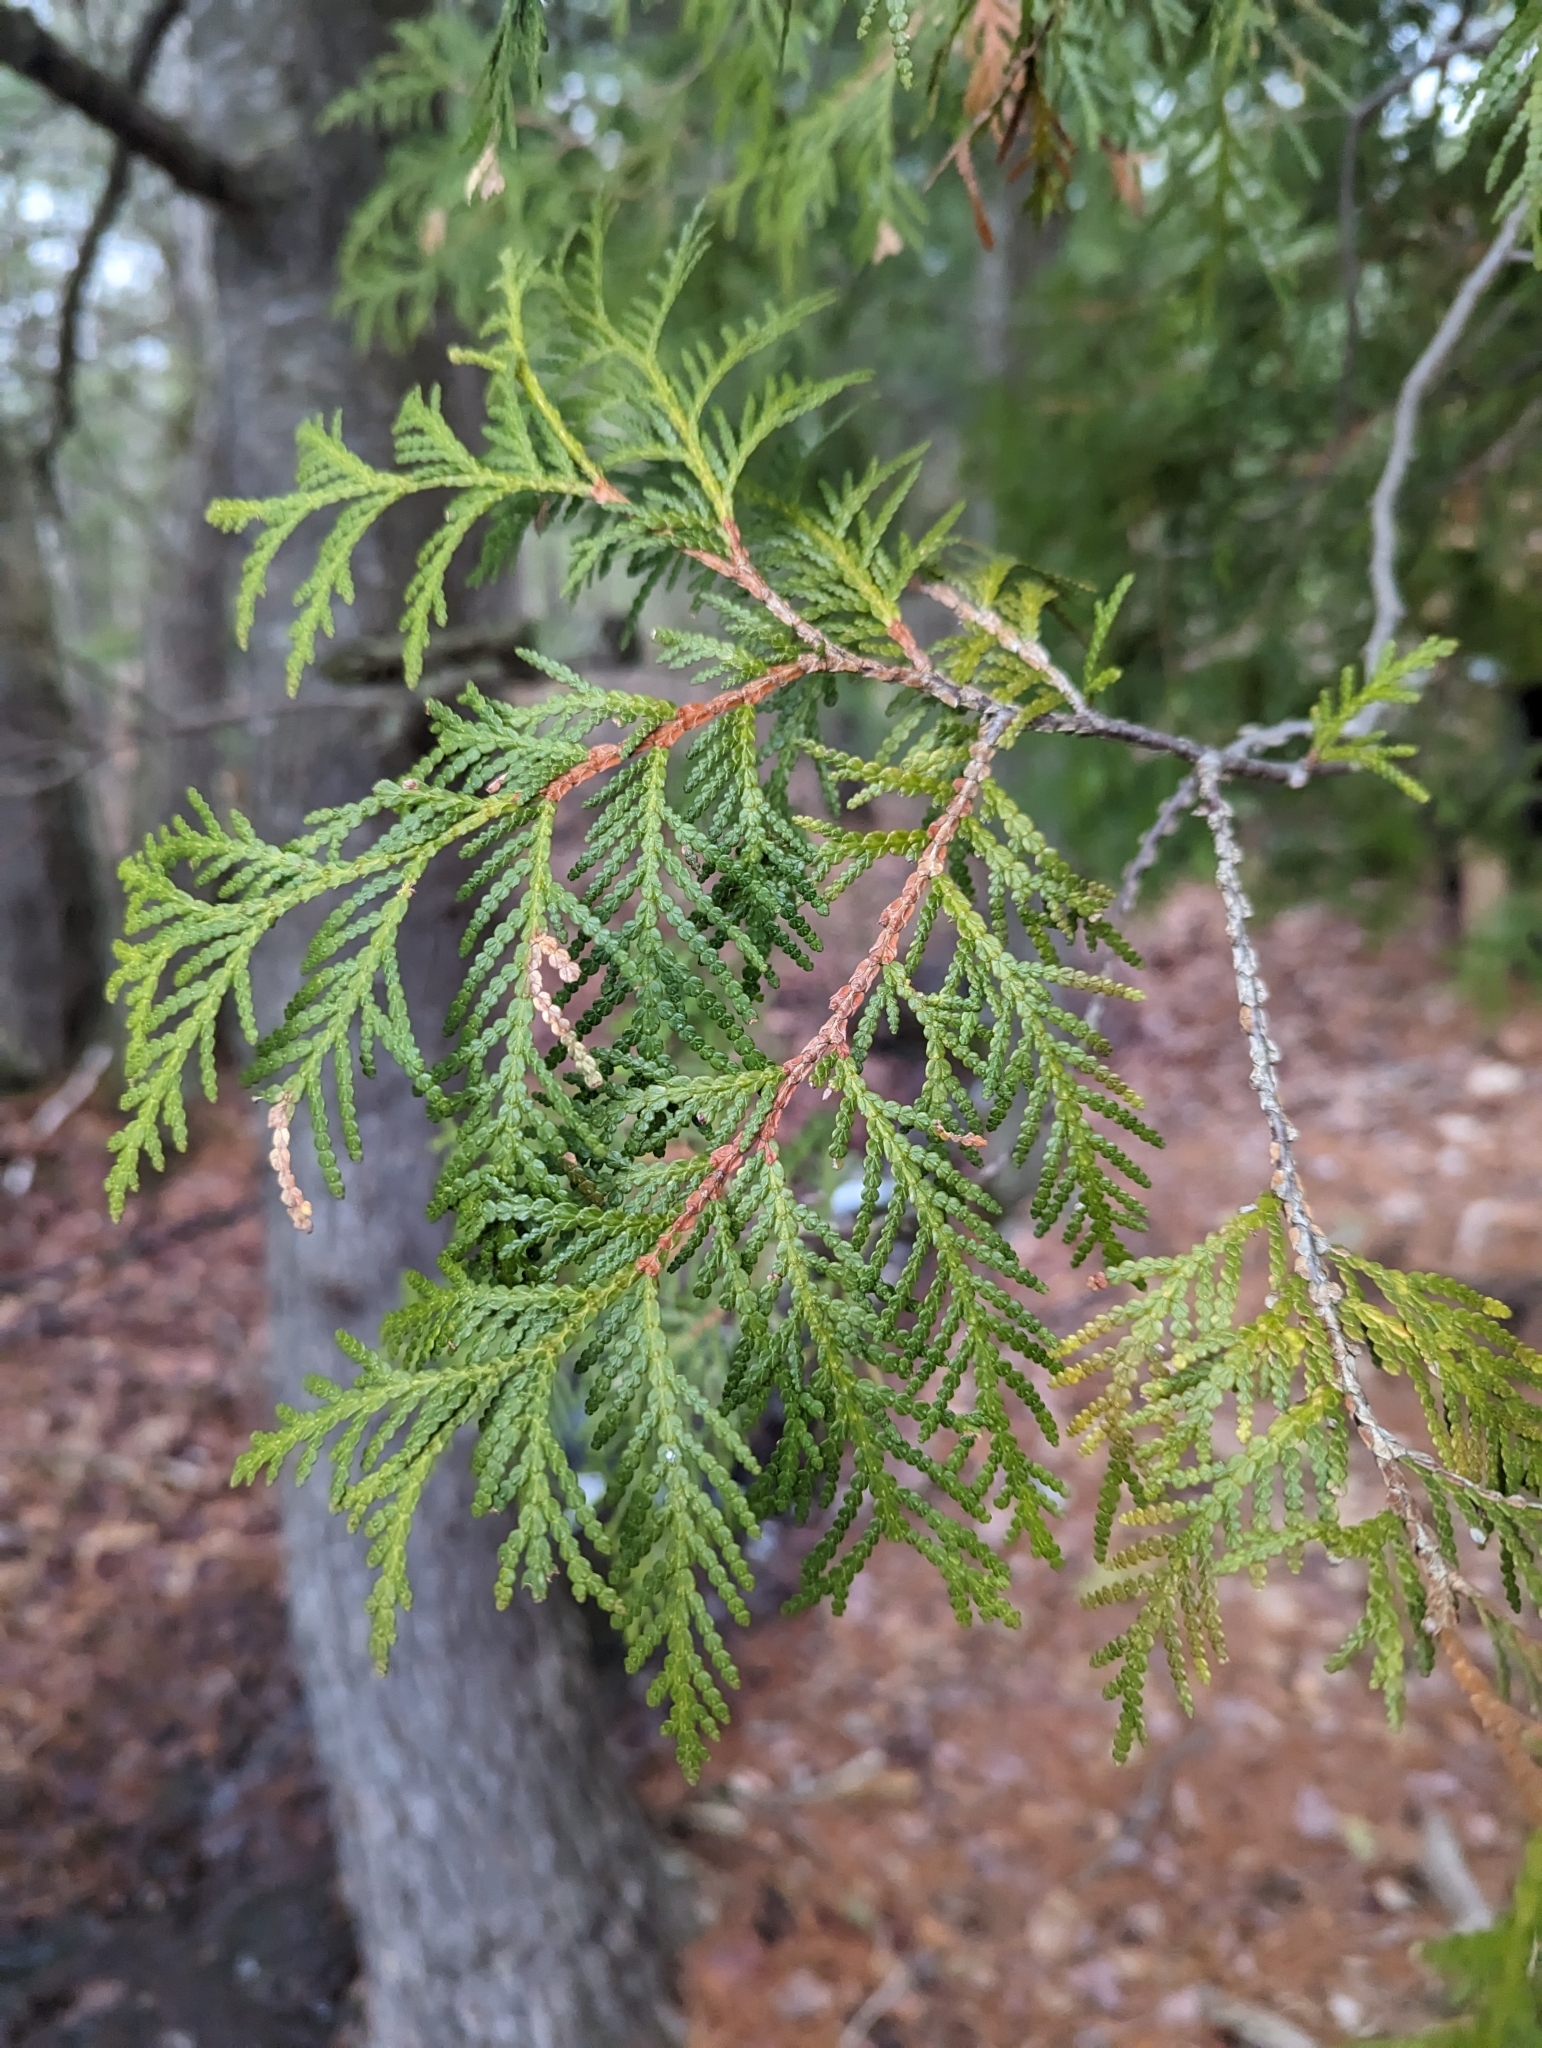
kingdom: Plantae
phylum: Tracheophyta
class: Pinopsida
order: Pinales
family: Cupressaceae
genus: Thuja
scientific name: Thuja occidentalis
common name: Northern white-cedar
